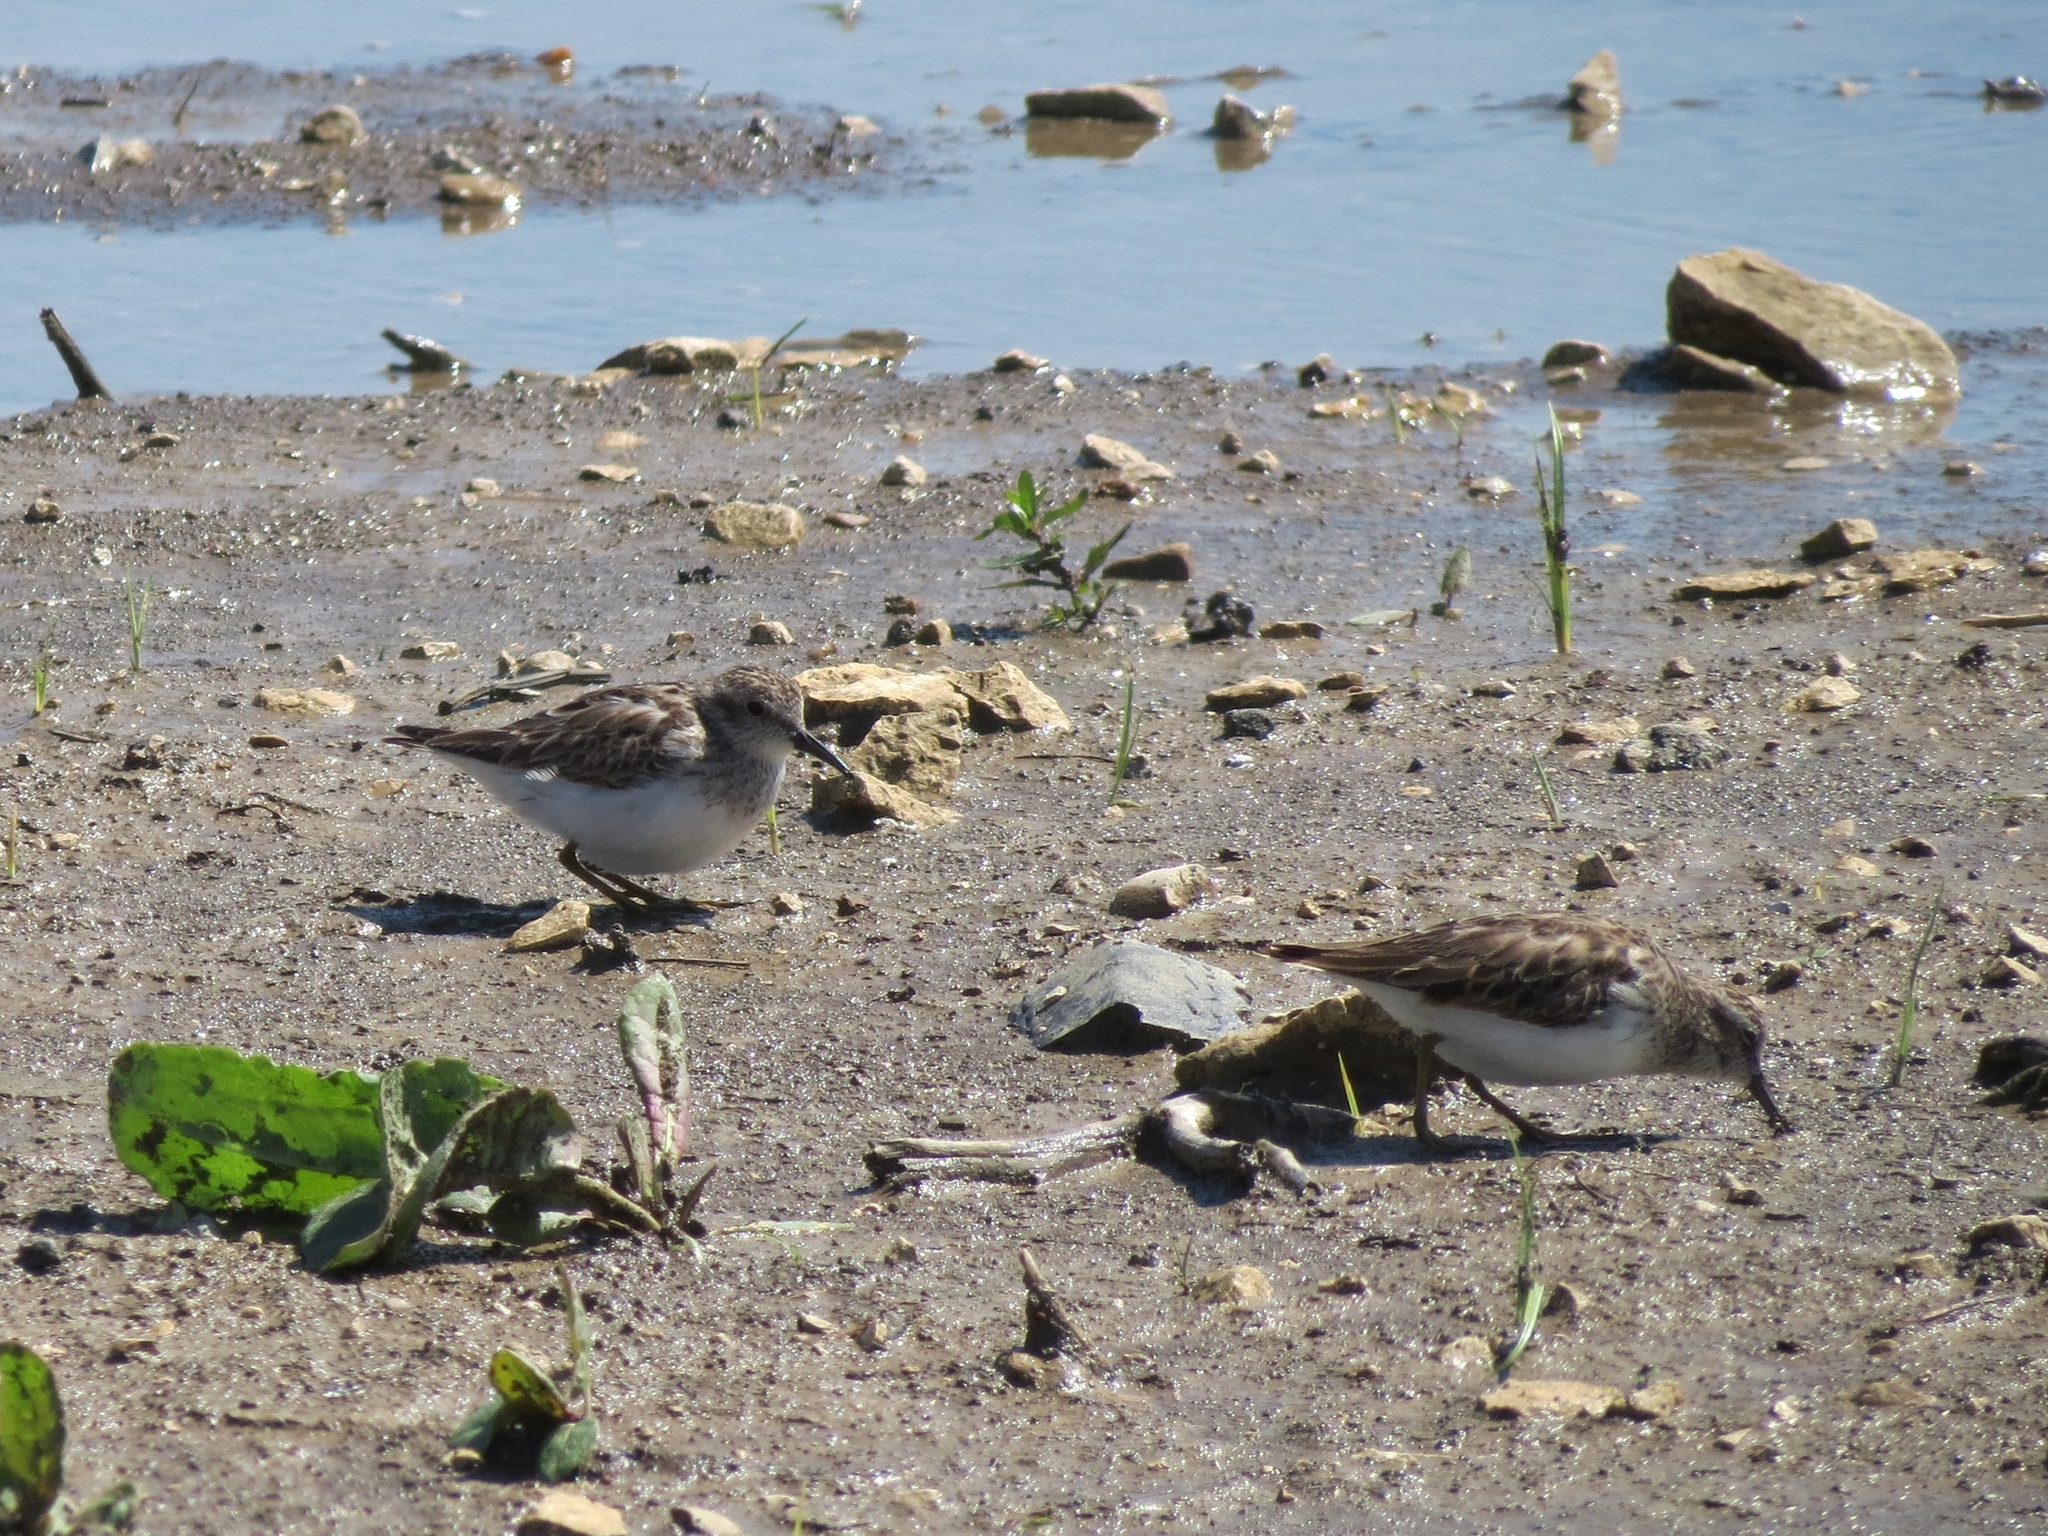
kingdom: Animalia
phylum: Chordata
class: Aves
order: Charadriiformes
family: Scolopacidae
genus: Calidris
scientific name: Calidris minutilla
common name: Least sandpiper
